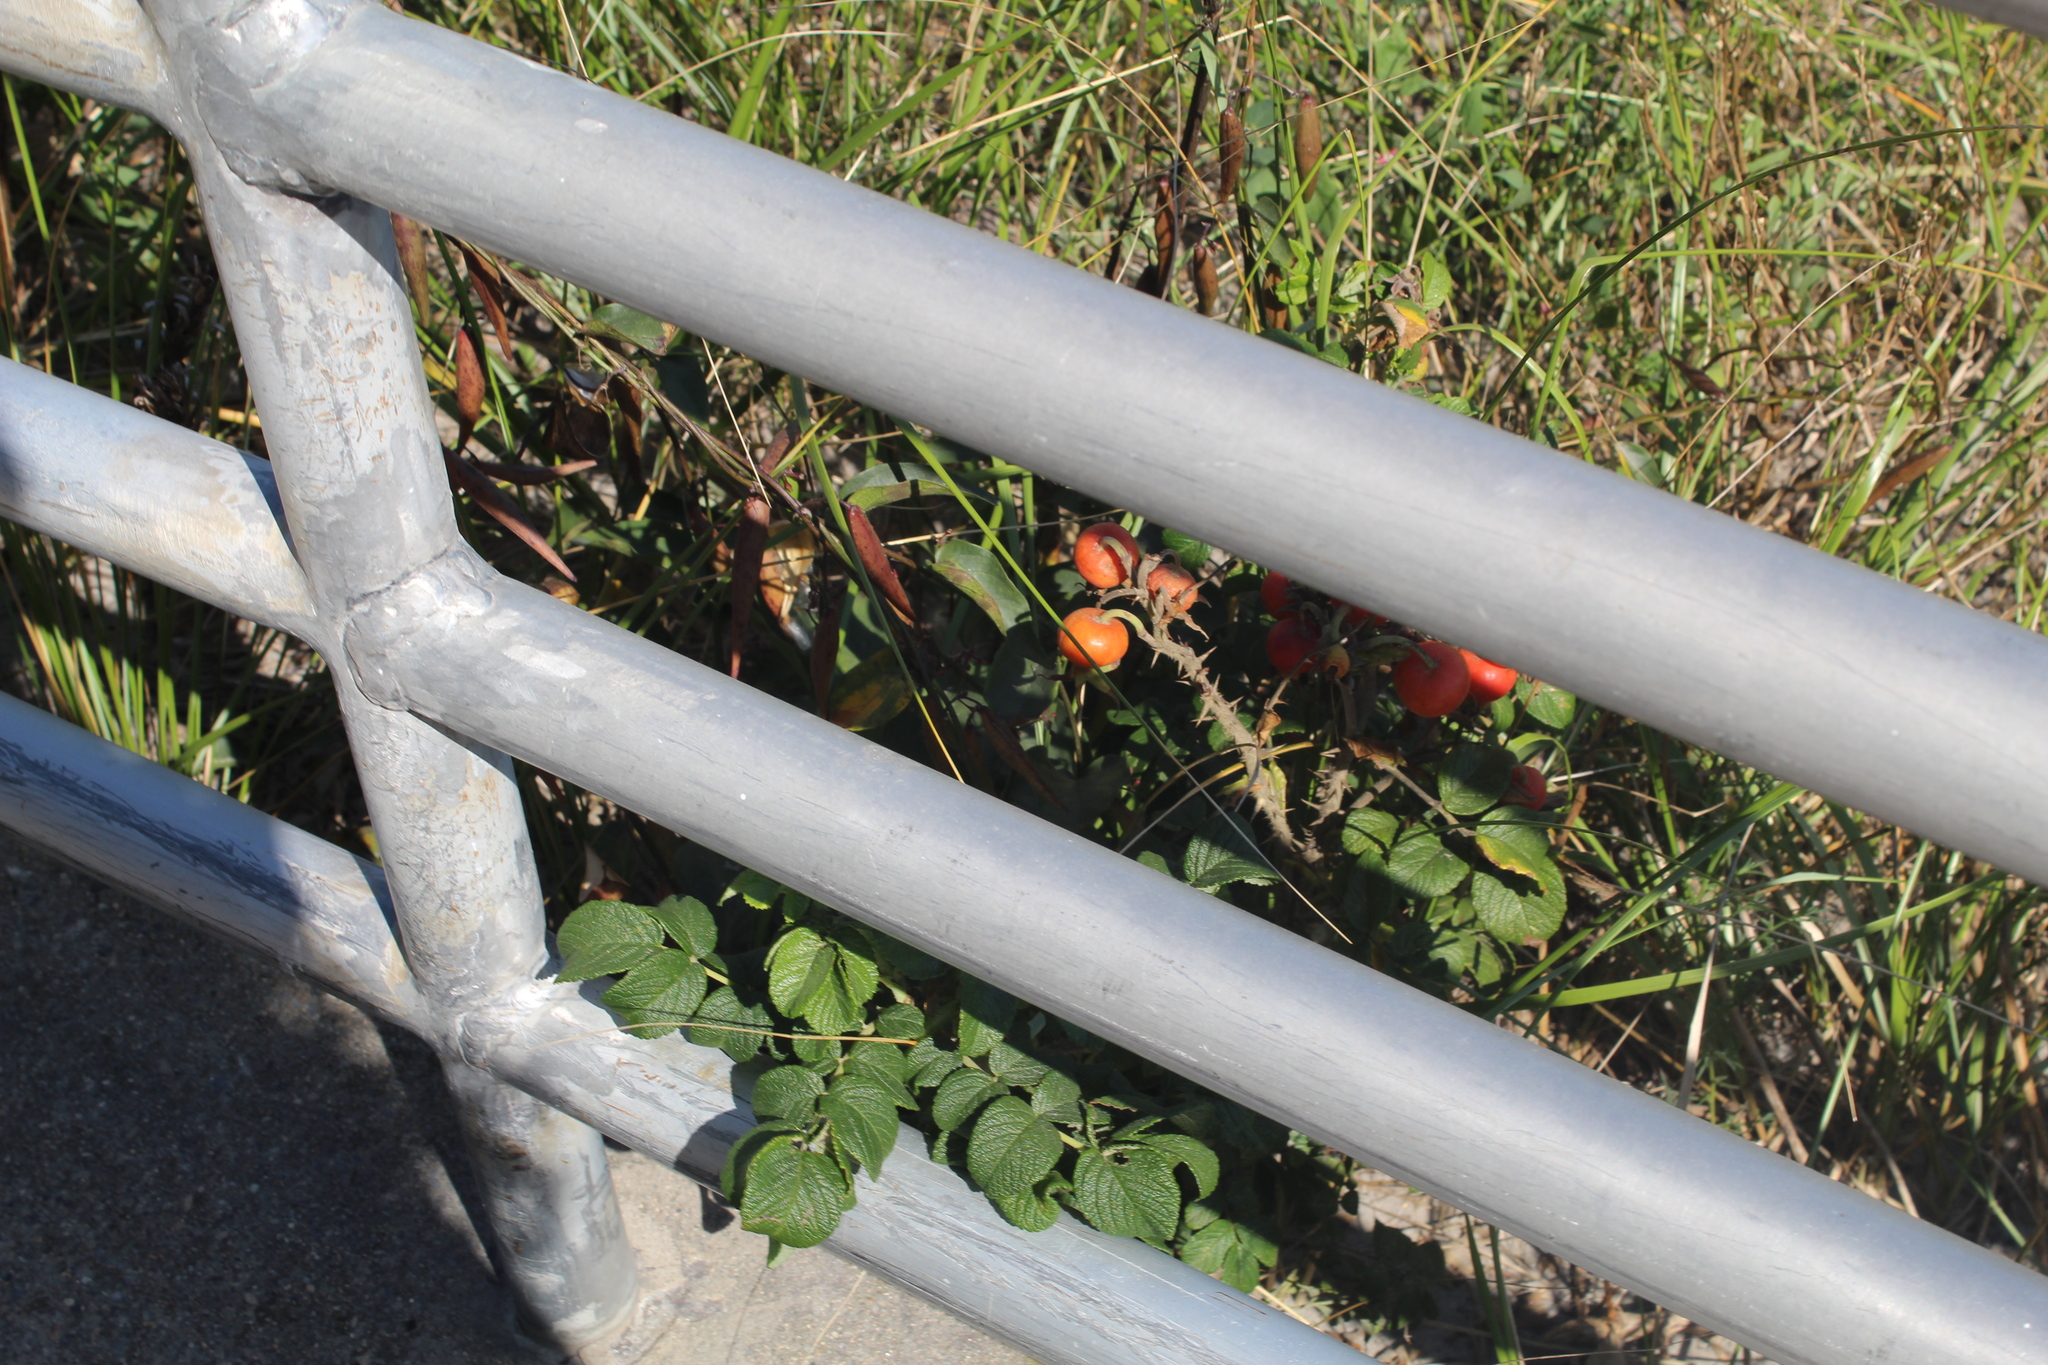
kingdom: Plantae
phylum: Tracheophyta
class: Magnoliopsida
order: Rosales
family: Rosaceae
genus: Rosa
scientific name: Rosa rugosa
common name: Japanese rose
